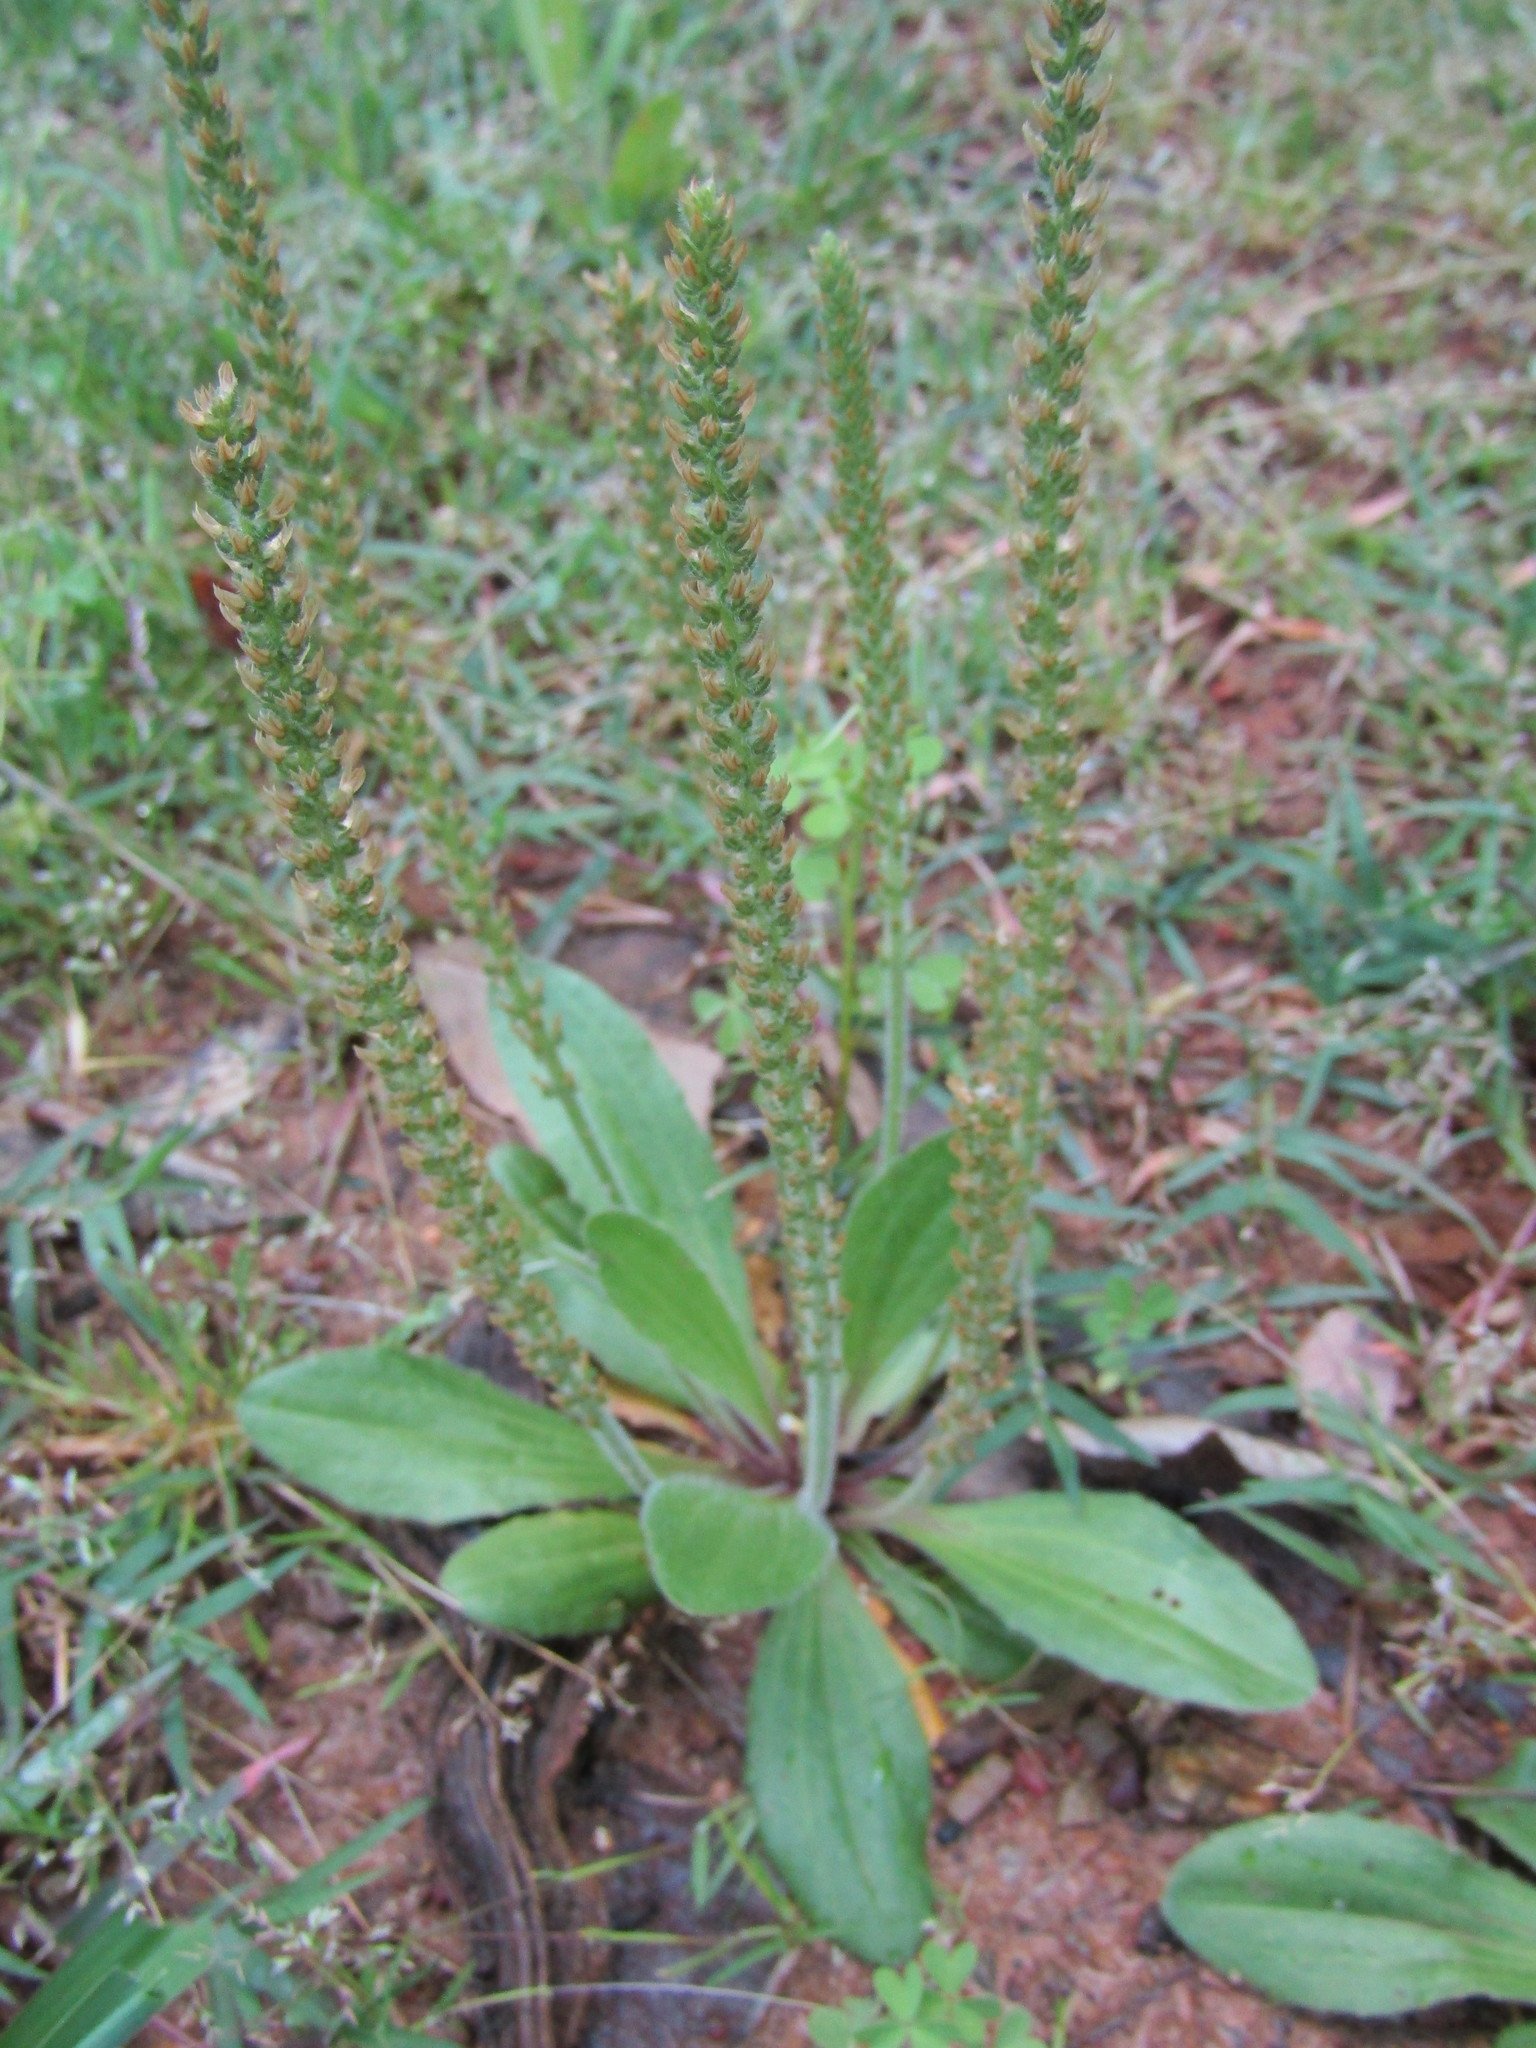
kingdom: Plantae
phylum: Tracheophyta
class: Magnoliopsida
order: Lamiales
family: Plantaginaceae
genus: Plantago
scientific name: Plantago virginica
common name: Hoary plantain
